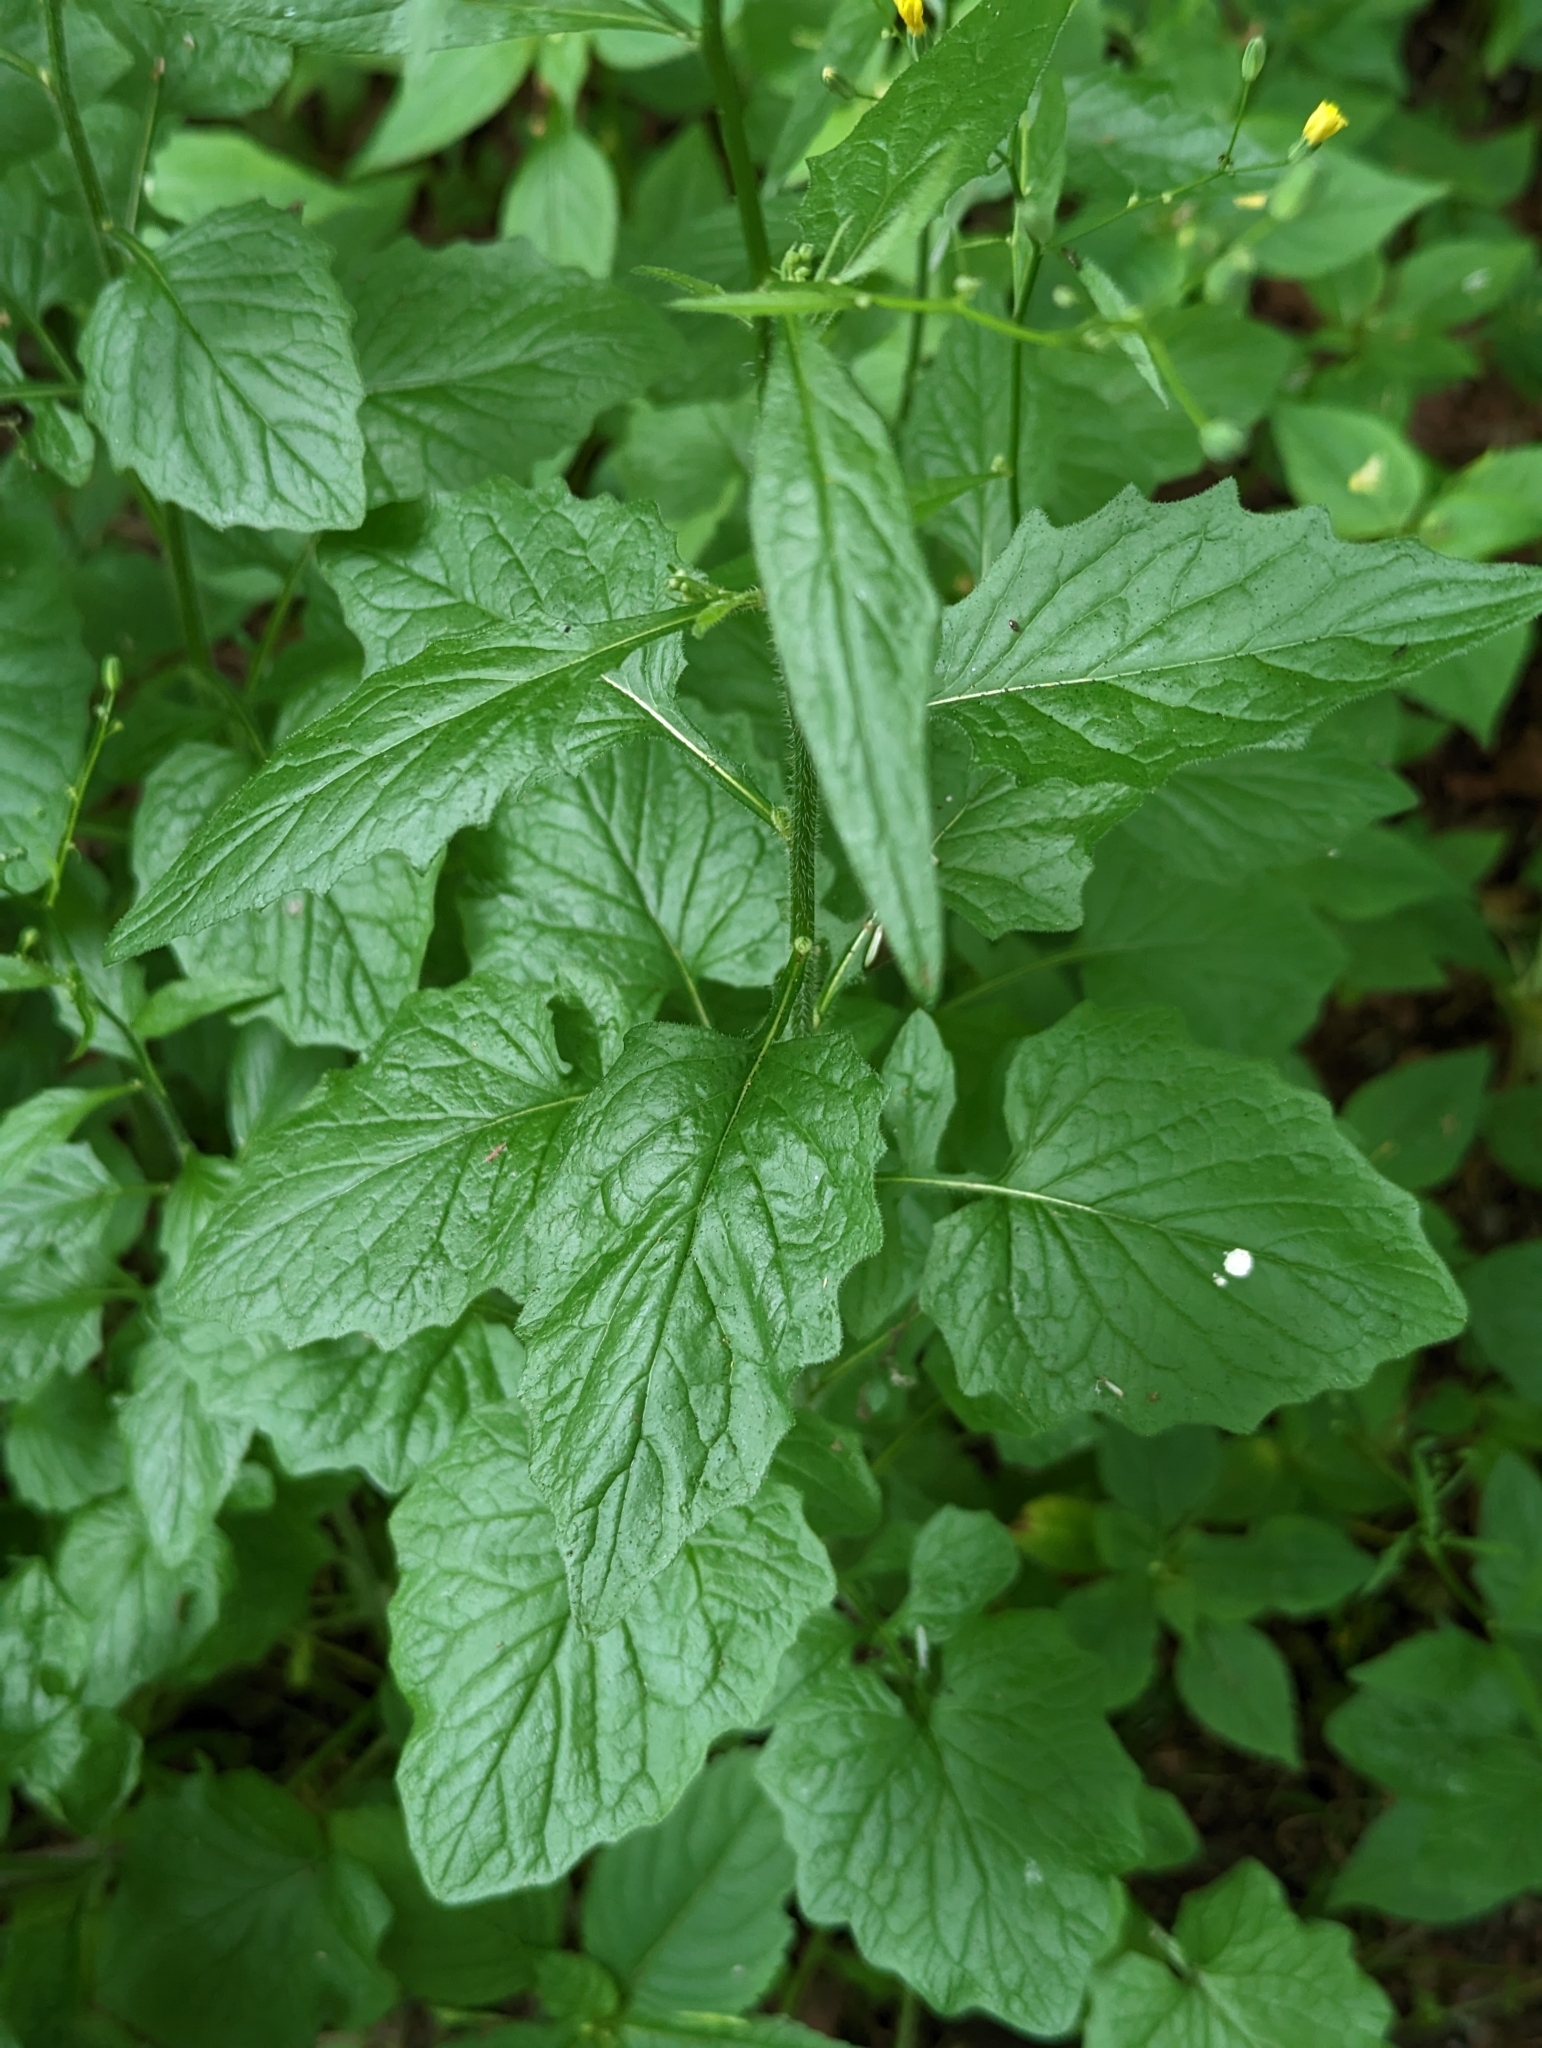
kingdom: Plantae
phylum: Tracheophyta
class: Magnoliopsida
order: Asterales
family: Asteraceae
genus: Lapsana
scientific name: Lapsana communis
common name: Nipplewort
